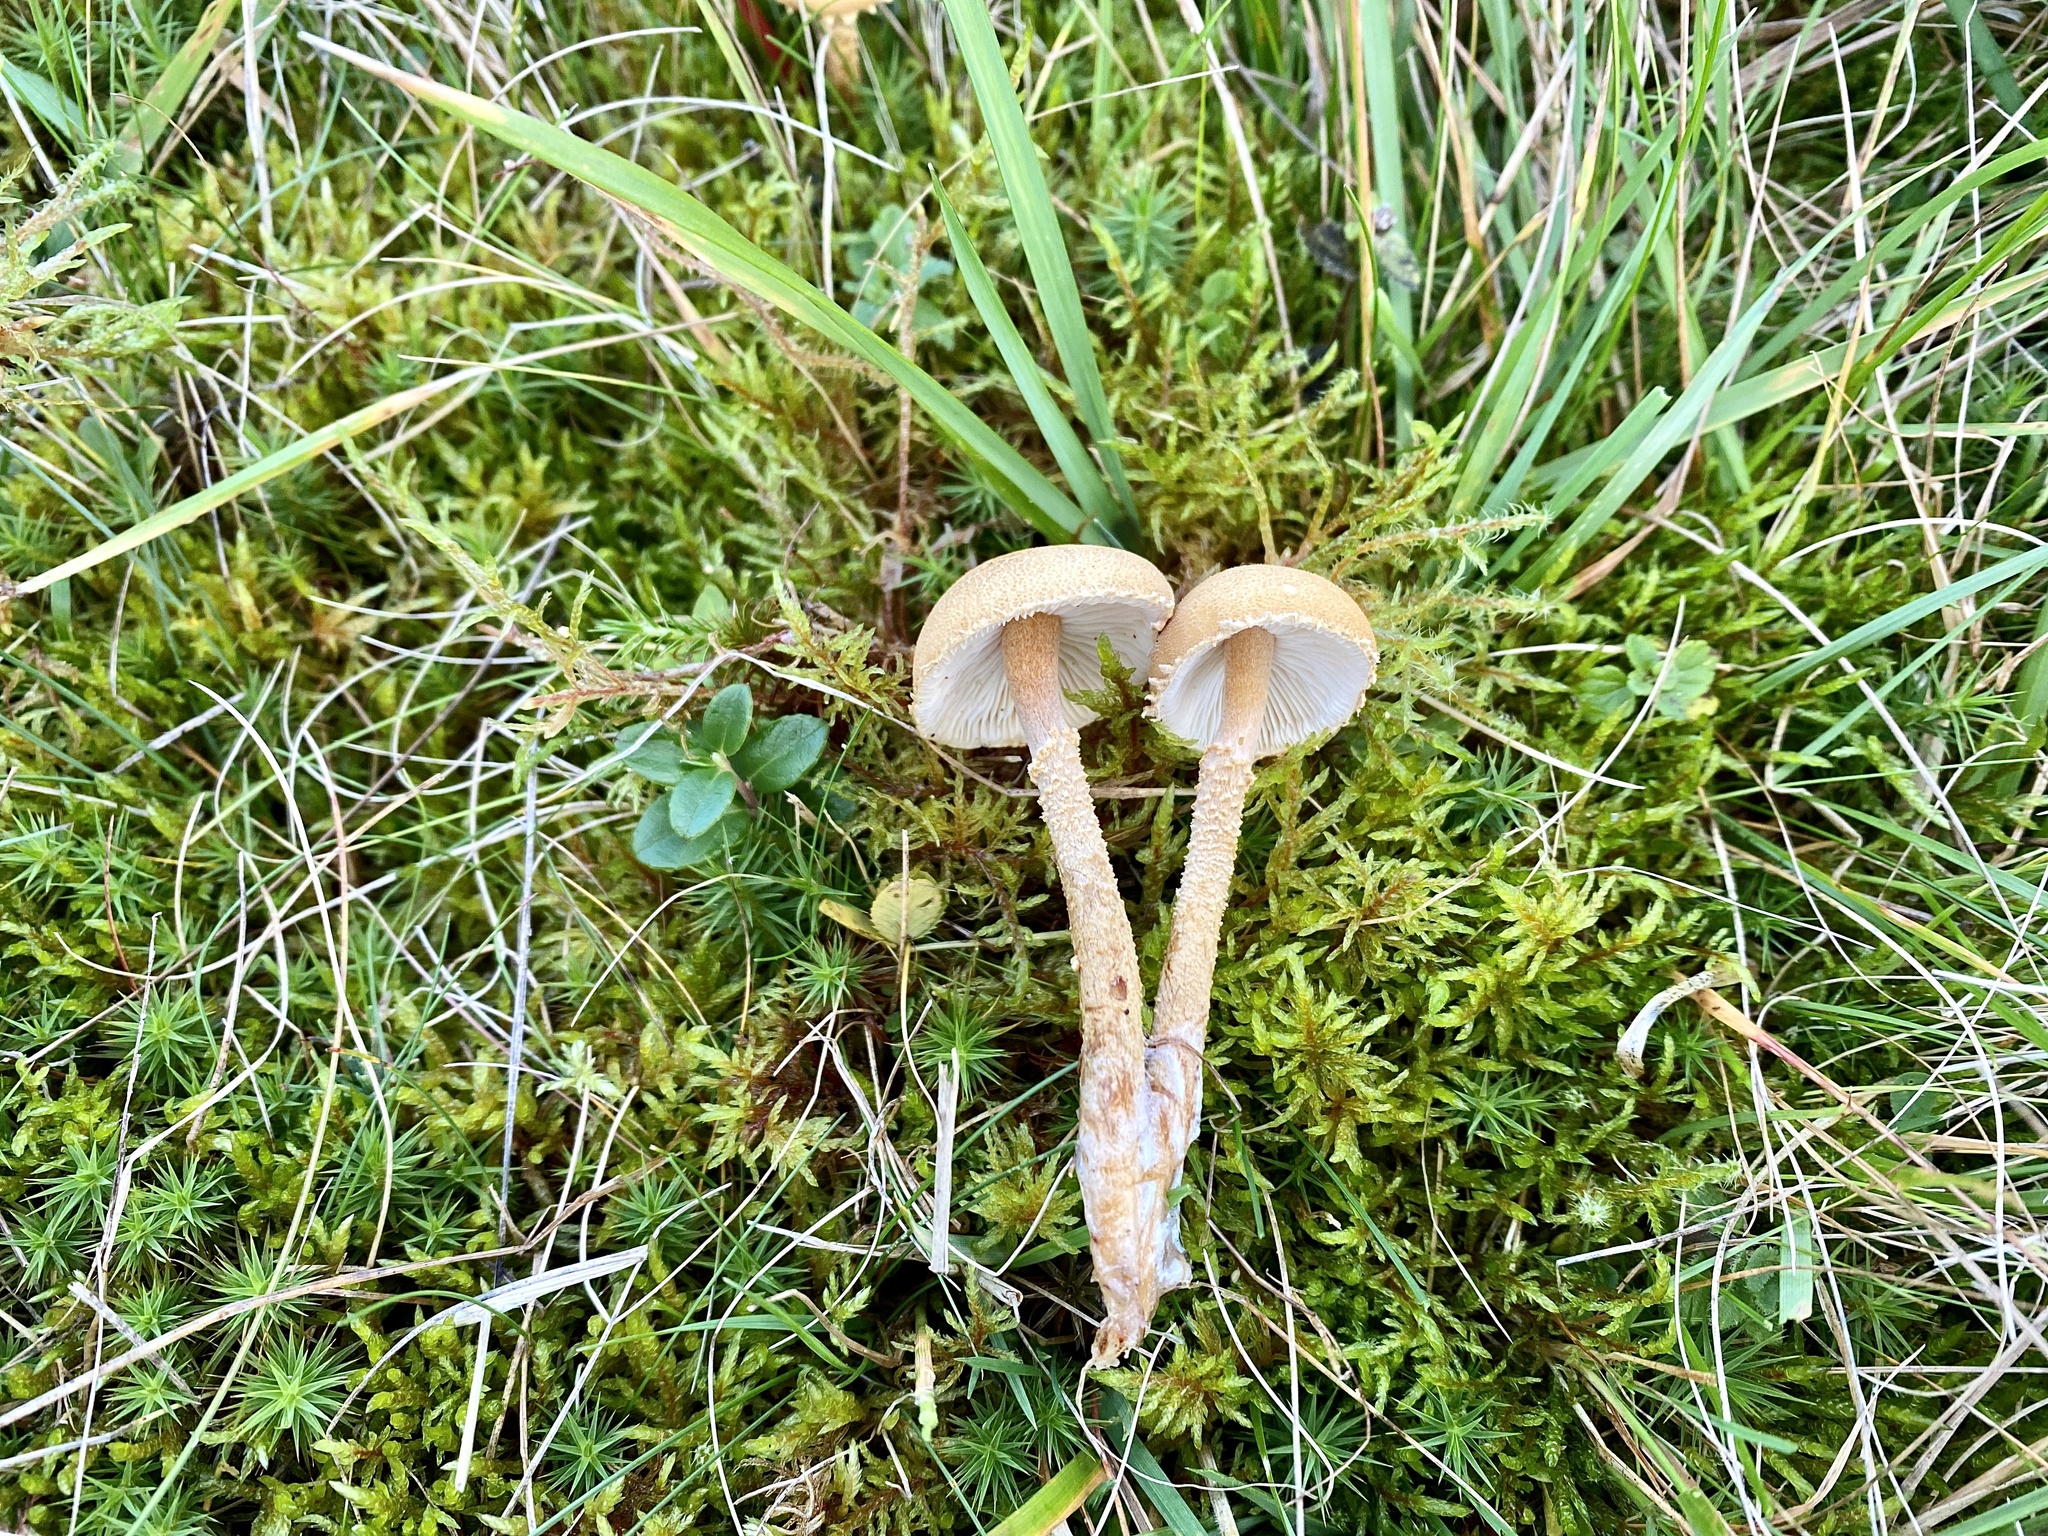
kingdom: Fungi
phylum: Basidiomycota
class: Agaricomycetes
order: Agaricales
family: Tricholomataceae
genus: Cystoderma
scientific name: Cystoderma amianthinum
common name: Earthy powdercap
